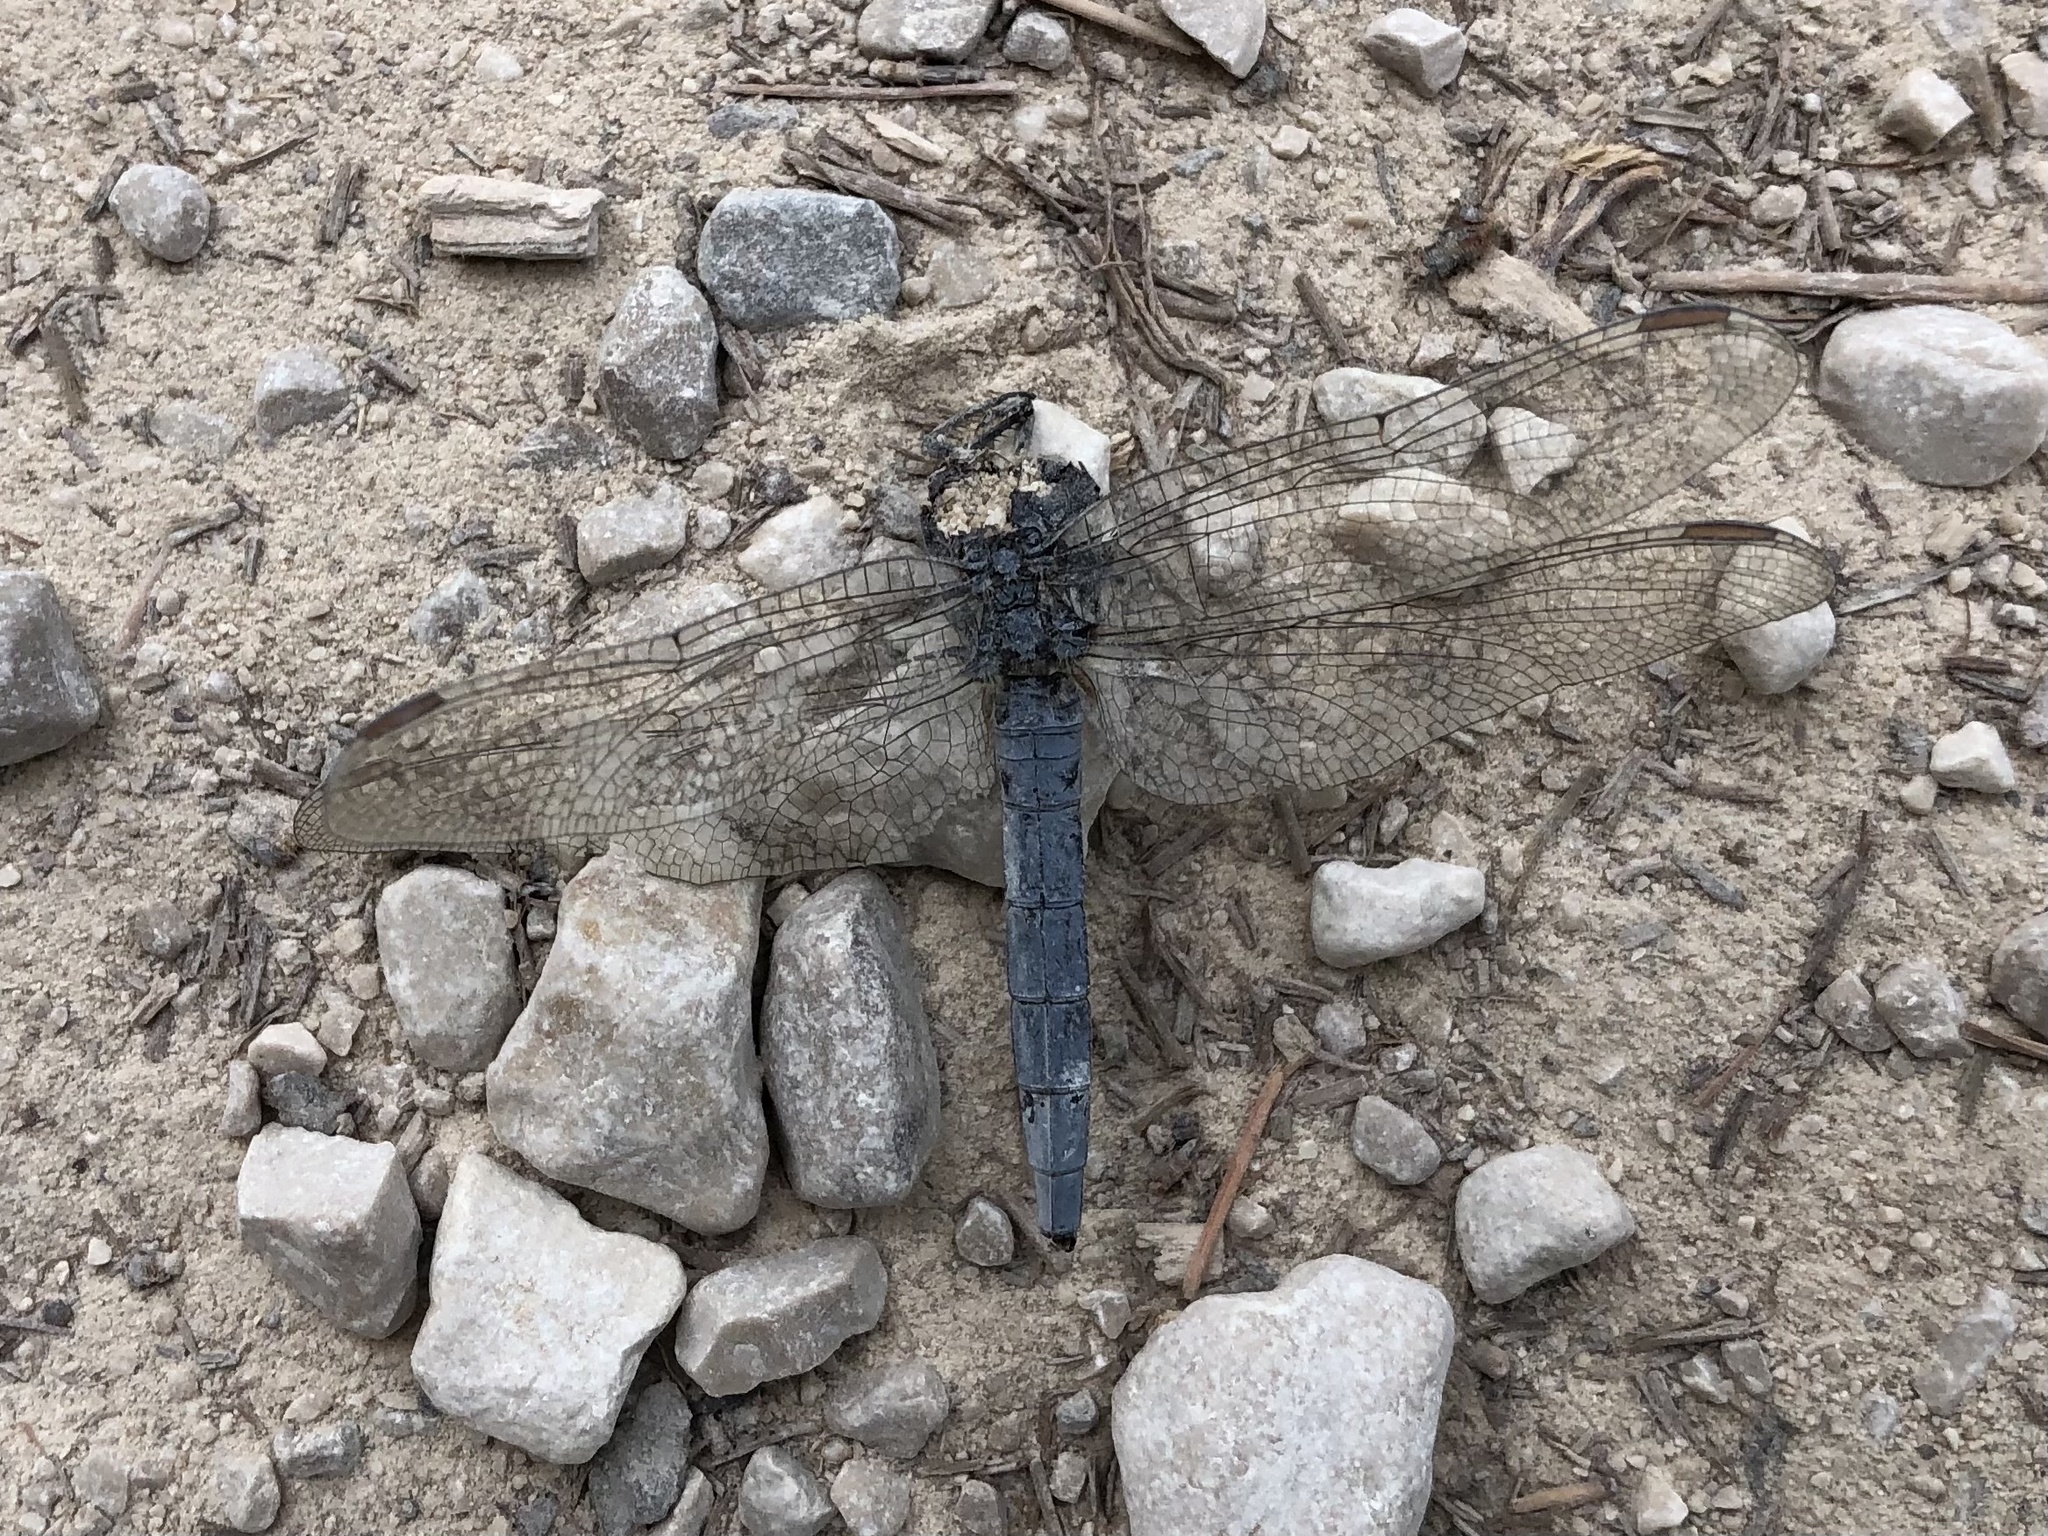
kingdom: Animalia
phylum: Arthropoda
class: Insecta
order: Odonata
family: Libellulidae
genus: Orthetrum
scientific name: Orthetrum coerulescens
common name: Keeled skimmer
